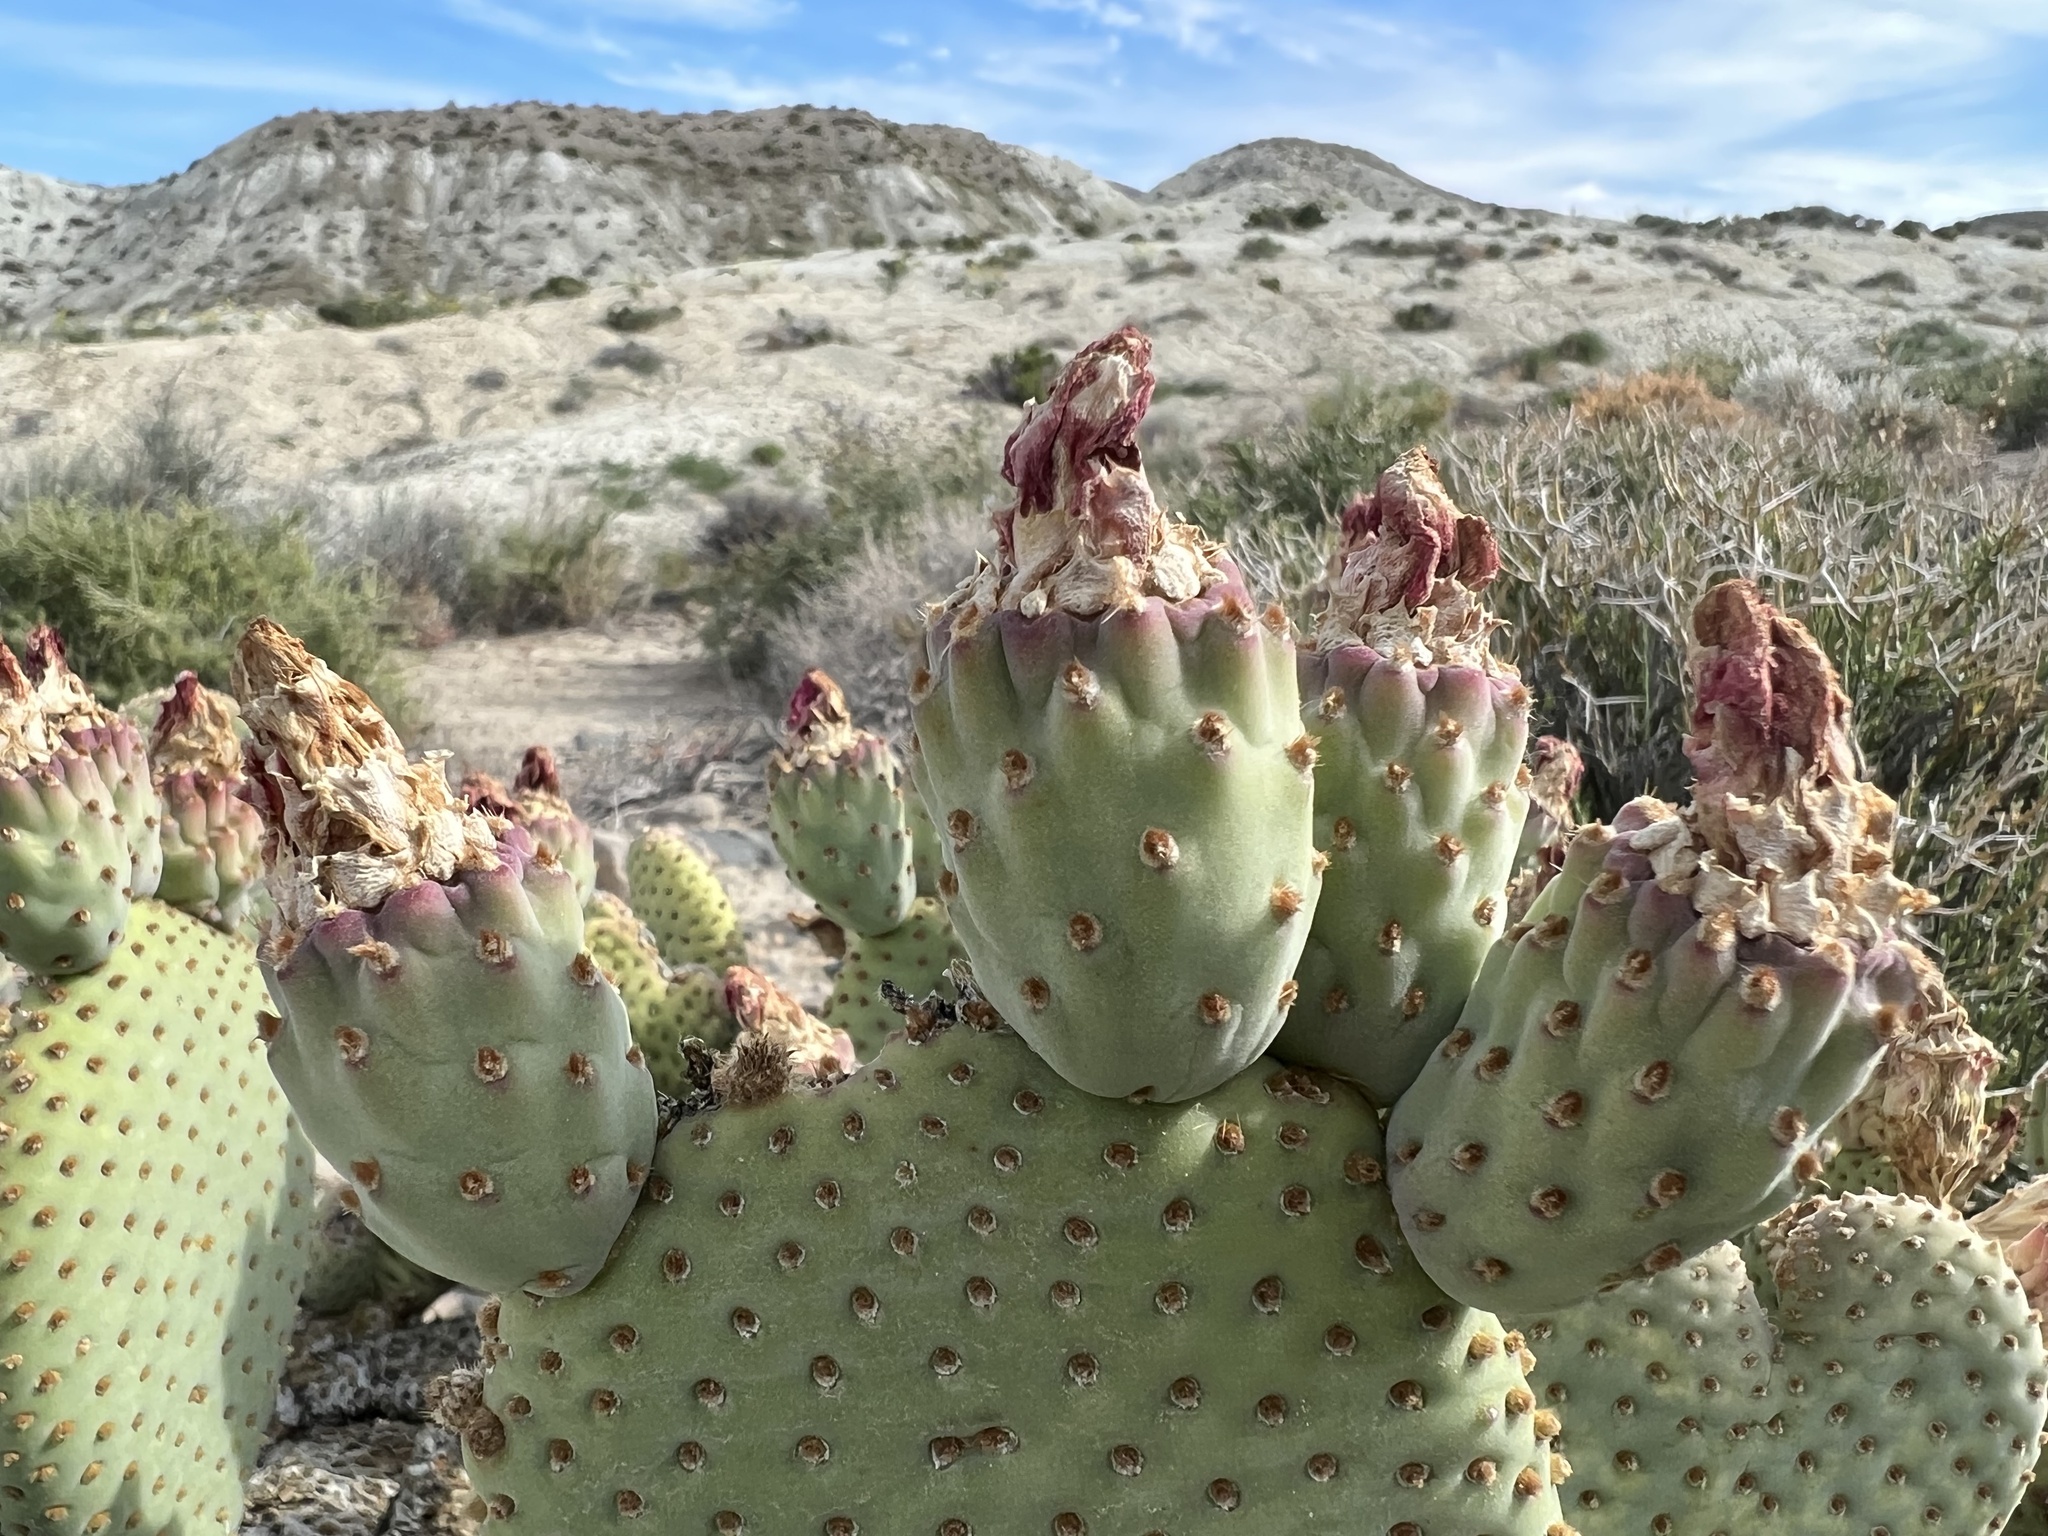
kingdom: Plantae
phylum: Tracheophyta
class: Magnoliopsida
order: Caryophyllales
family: Cactaceae
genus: Opuntia
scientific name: Opuntia basilaris
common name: Beavertail prickly-pear
